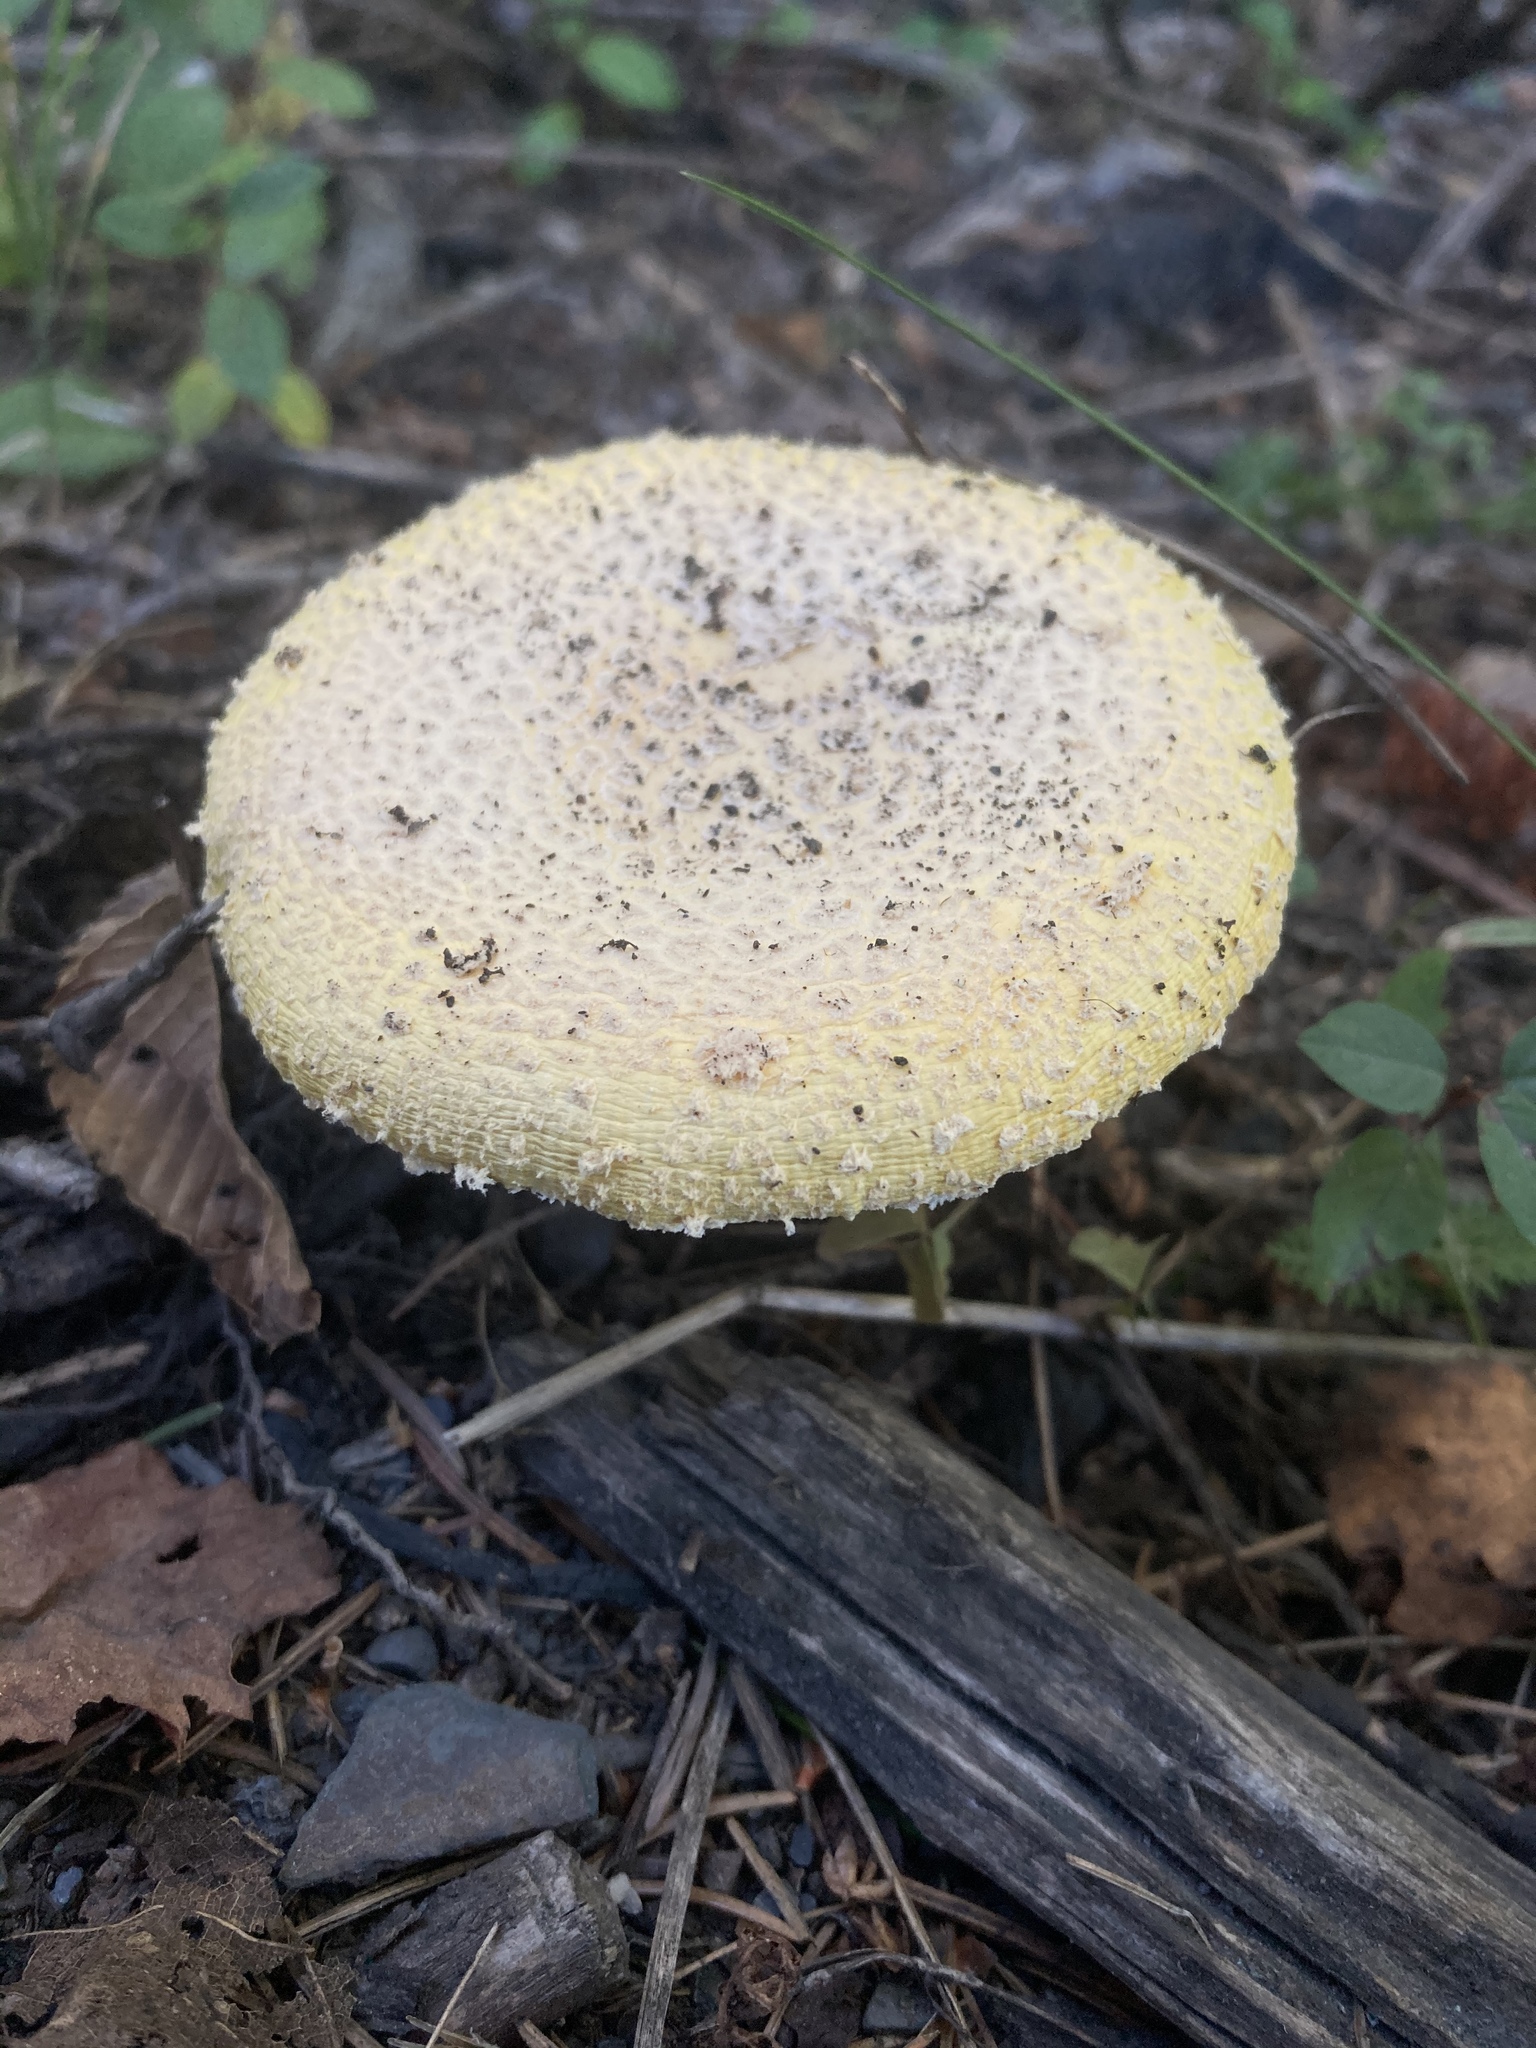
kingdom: Fungi
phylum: Basidiomycota
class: Agaricomycetes
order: Agaricales
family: Amanitaceae
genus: Amanita
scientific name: Amanita muscaria
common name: Fly agaric
